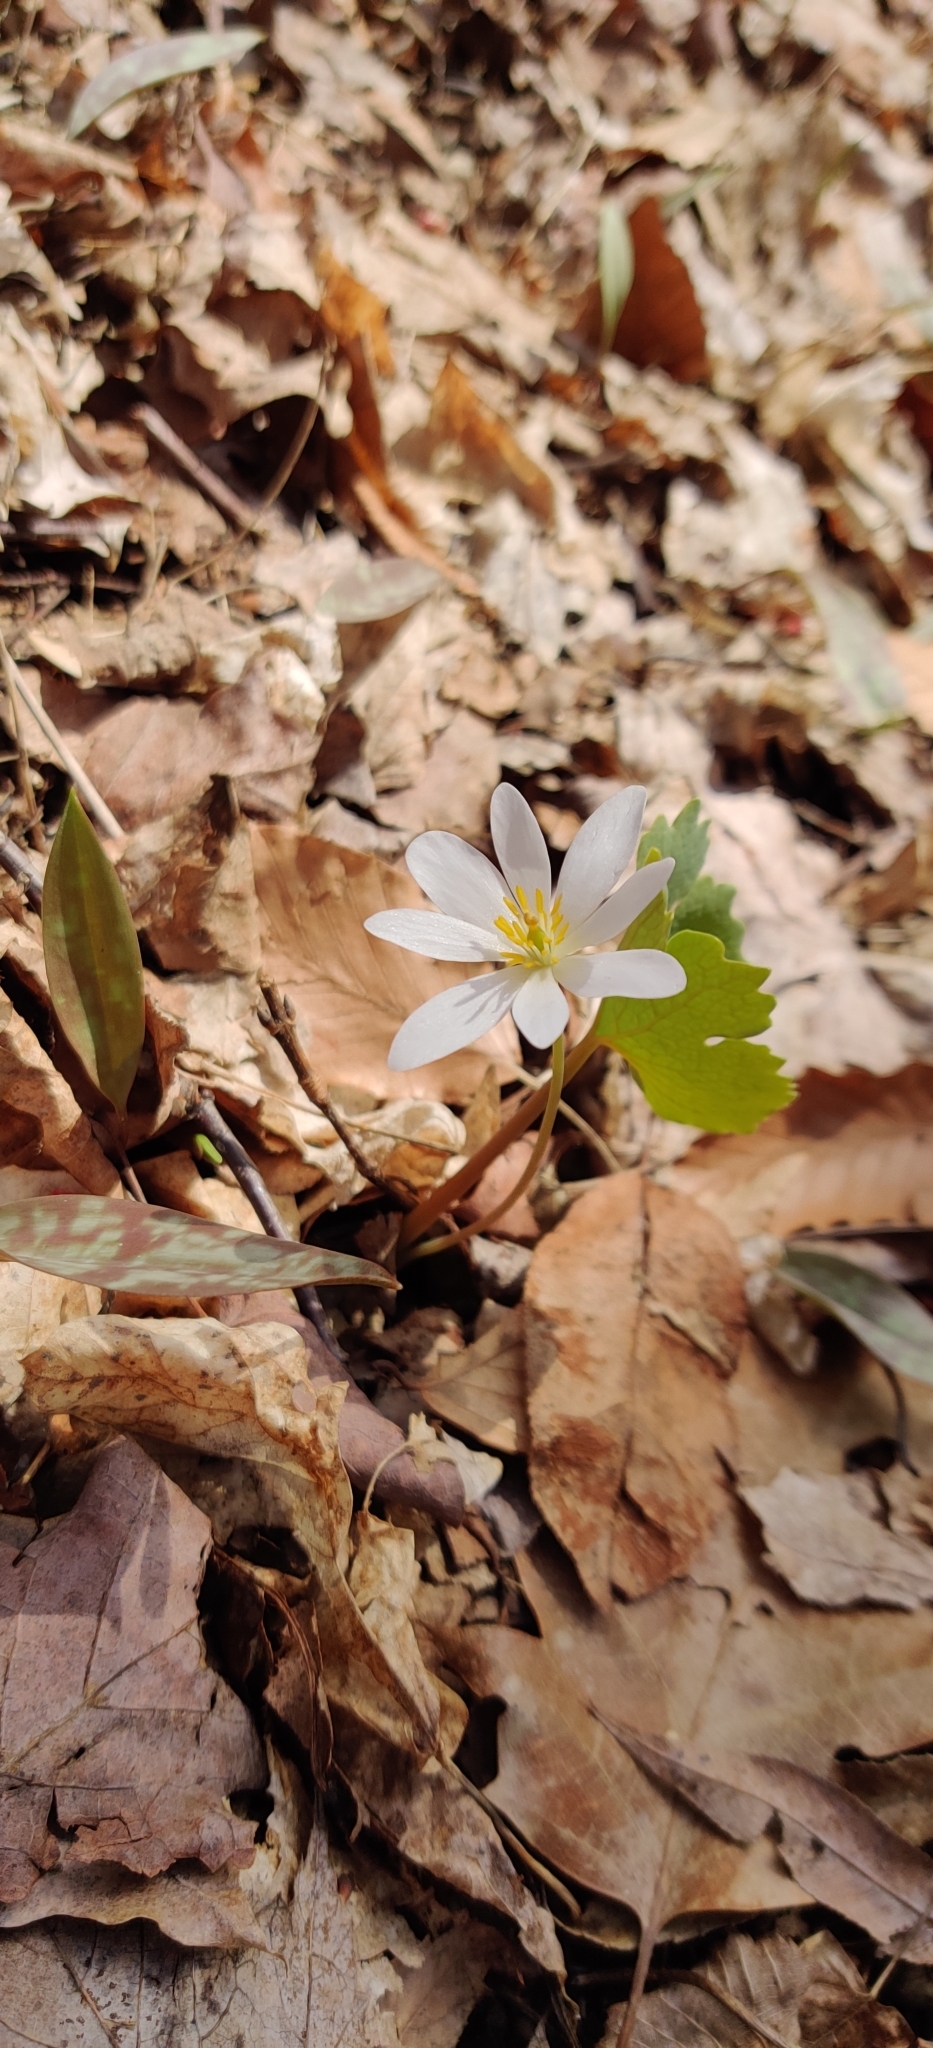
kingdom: Plantae
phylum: Tracheophyta
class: Magnoliopsida
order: Ranunculales
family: Papaveraceae
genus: Sanguinaria
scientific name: Sanguinaria canadensis
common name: Bloodroot
